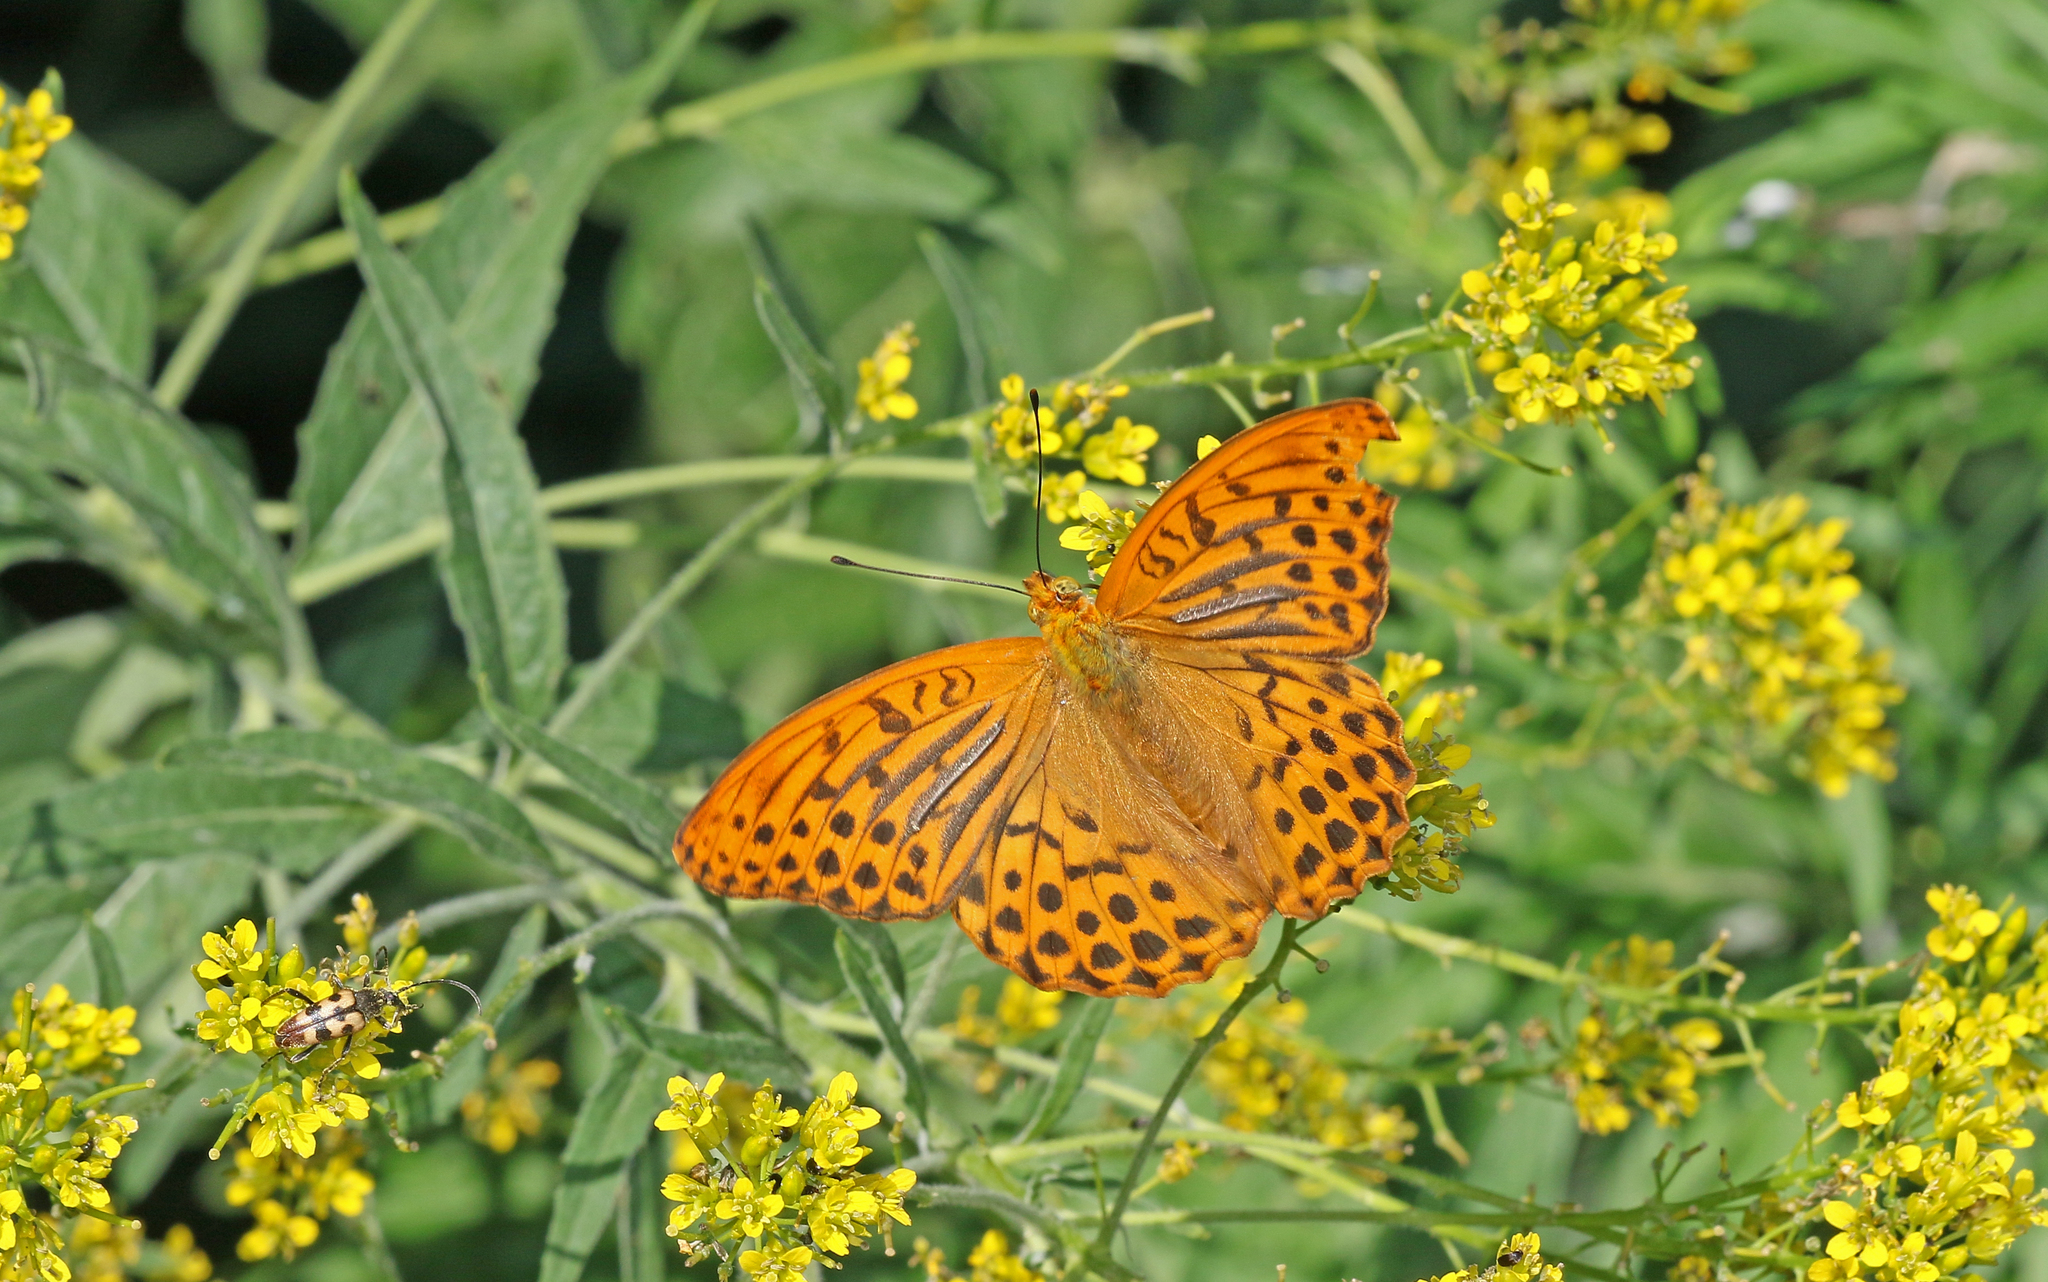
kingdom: Animalia
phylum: Arthropoda
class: Insecta
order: Lepidoptera
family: Nymphalidae
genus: Argynnis
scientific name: Argynnis paphia
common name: Silver-washed fritillary
